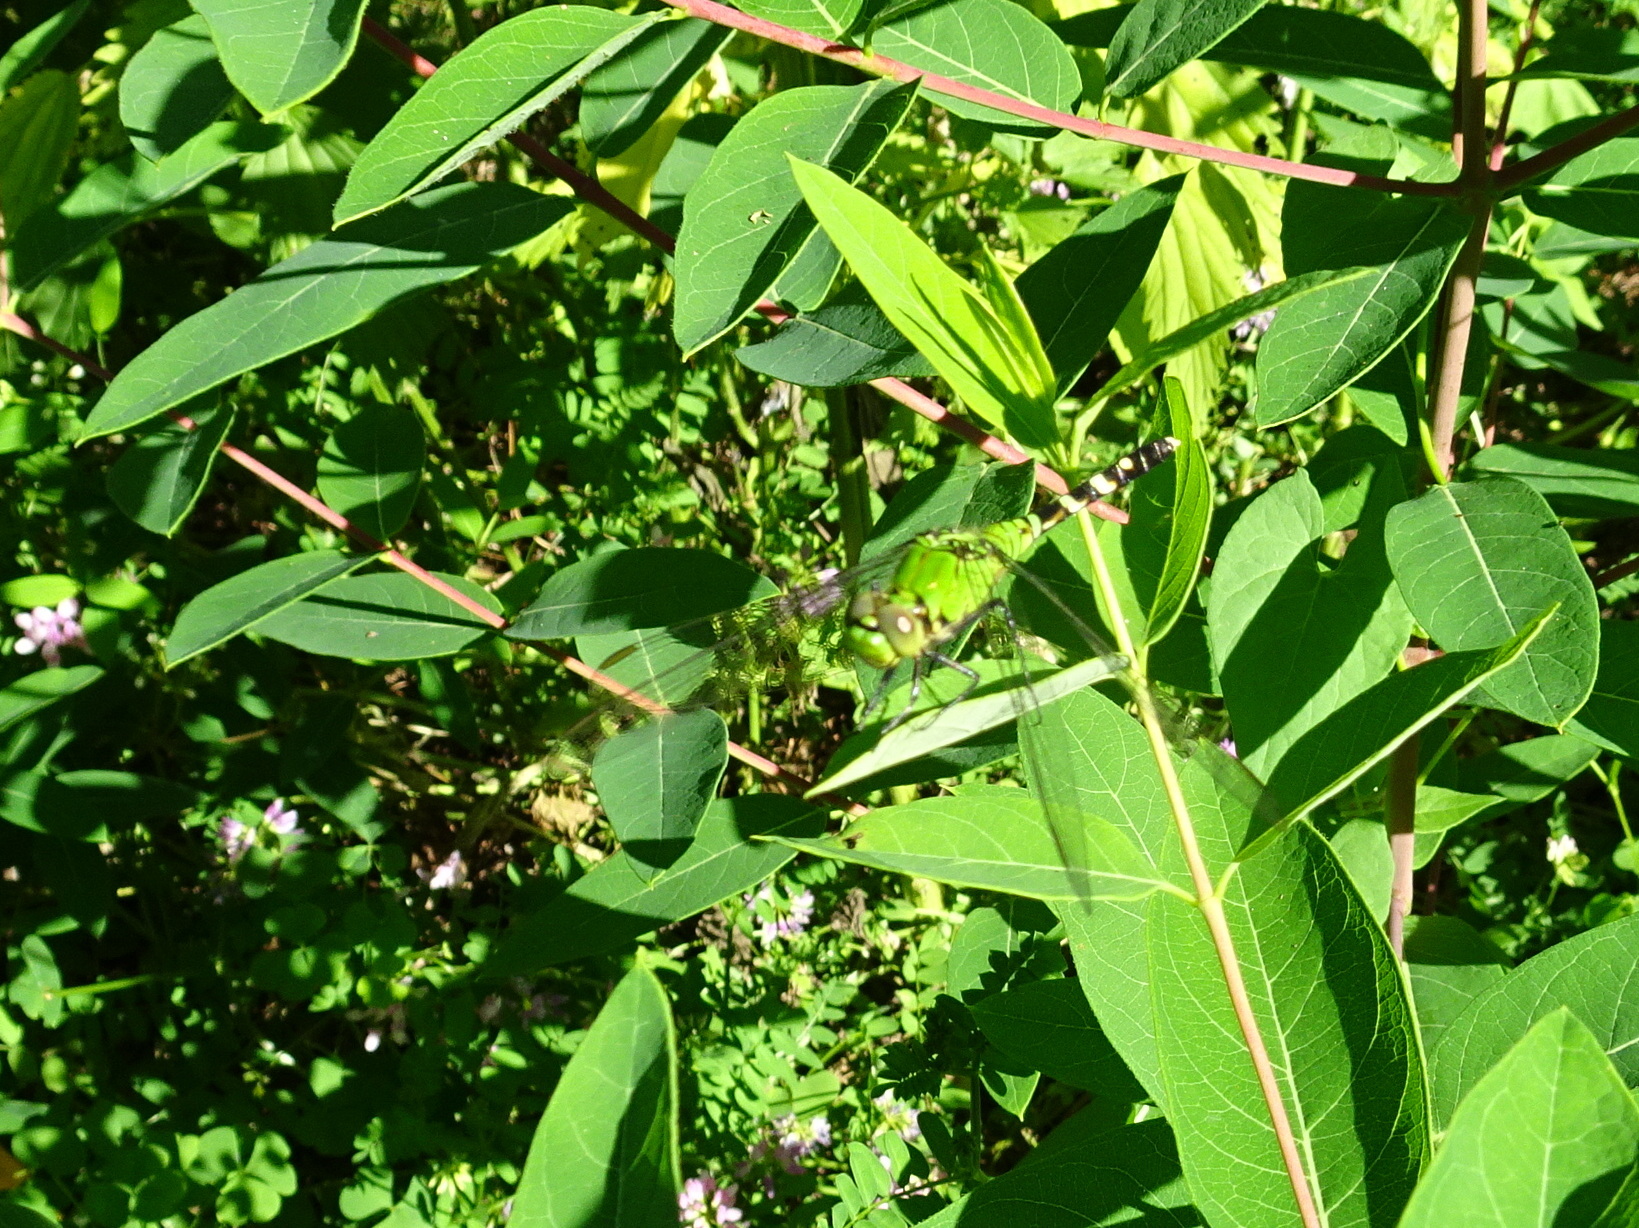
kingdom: Animalia
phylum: Arthropoda
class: Insecta
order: Odonata
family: Libellulidae
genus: Erythemis
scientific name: Erythemis simplicicollis
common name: Eastern pondhawk
